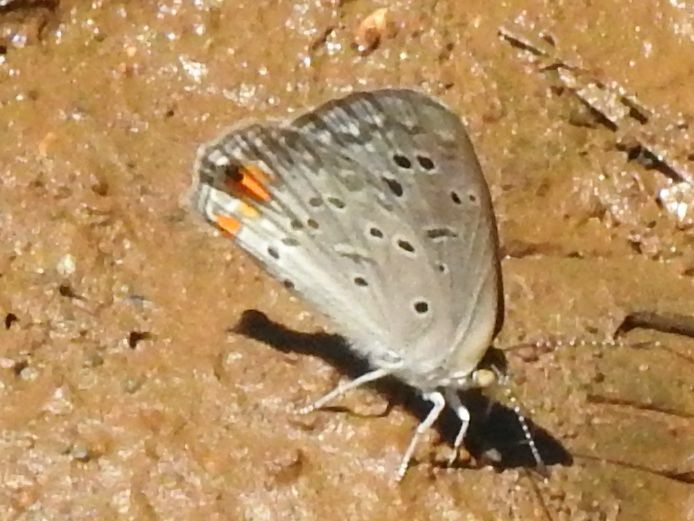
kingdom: Animalia
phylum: Arthropoda
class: Insecta
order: Lepidoptera
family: Lycaenidae
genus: Cupido
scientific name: Cupido cissus
